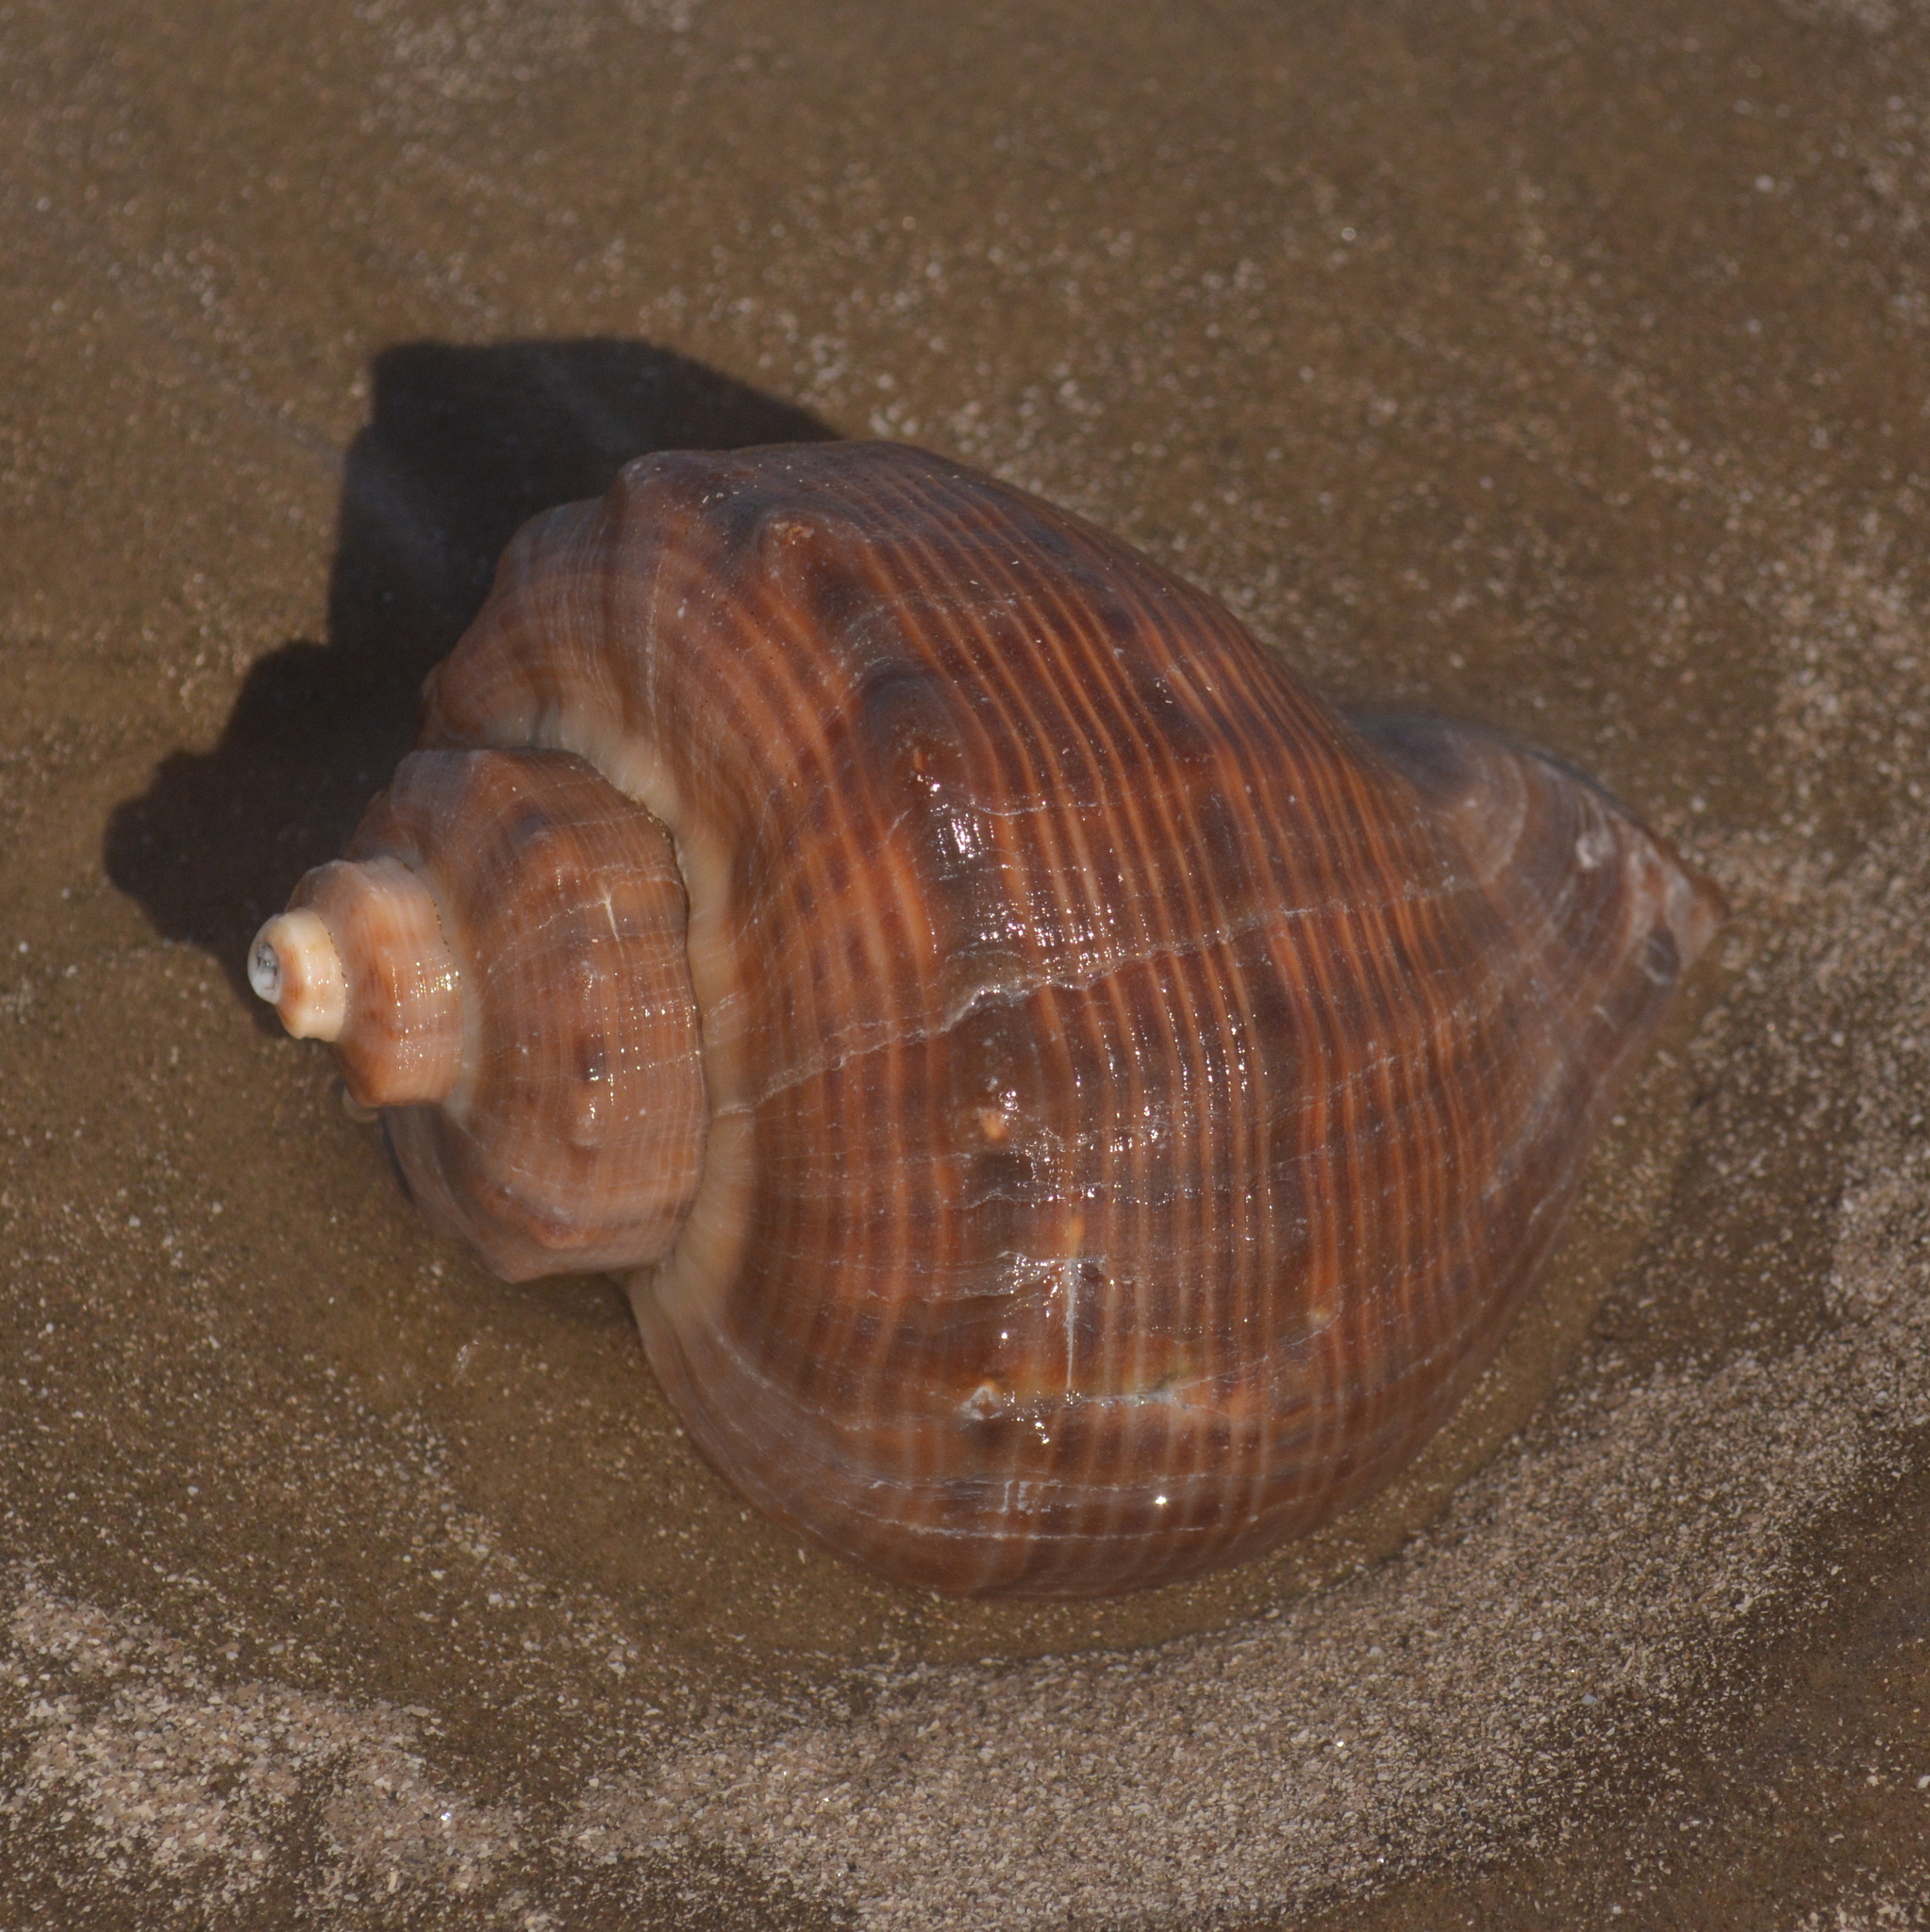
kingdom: Animalia
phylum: Mollusca
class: Gastropoda
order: Neogastropoda
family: Muricidae
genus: Rapana
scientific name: Rapana venosa
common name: Veined rapa whelk
